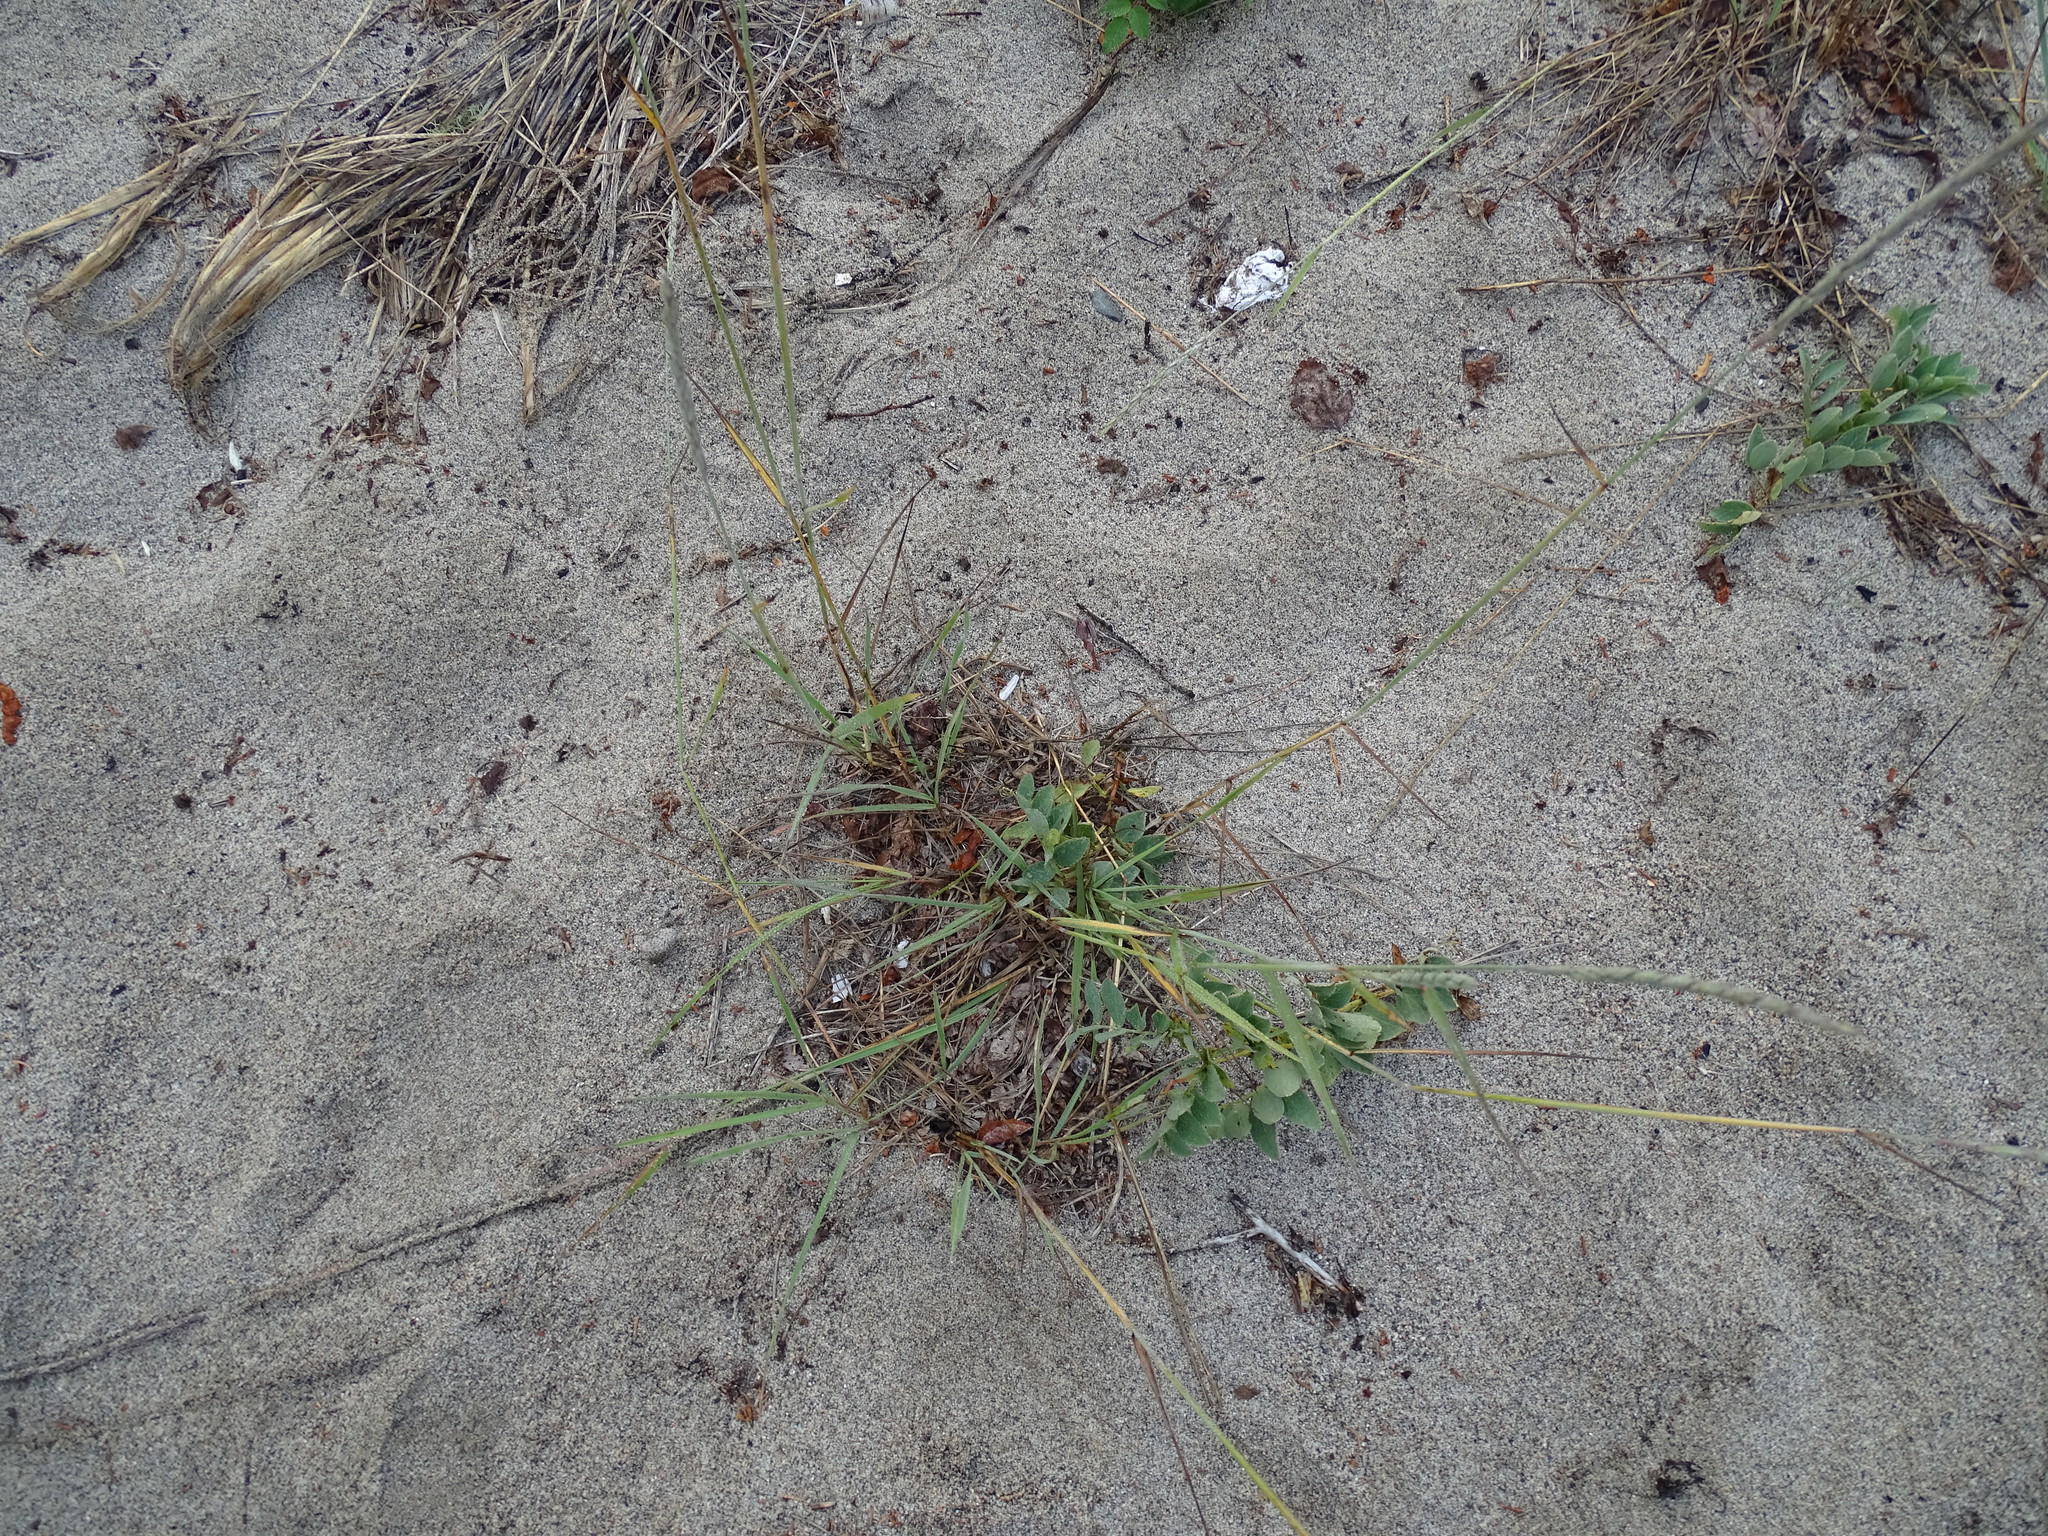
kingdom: Plantae
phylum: Tracheophyta
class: Liliopsida
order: Poales
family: Poaceae
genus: Elymus
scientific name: Elymus violaceus
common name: Arctic wheatgrass
